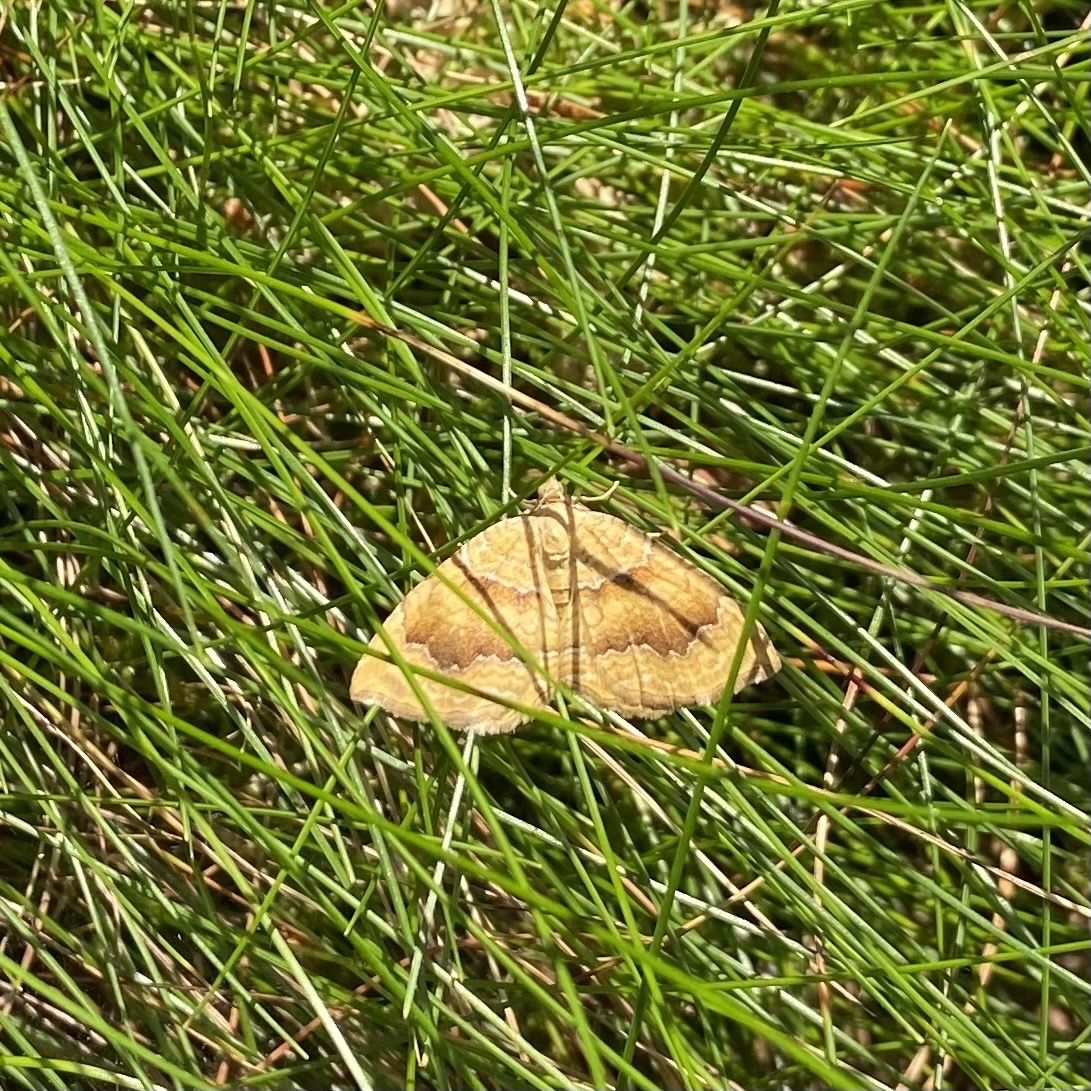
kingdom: Animalia
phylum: Arthropoda
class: Insecta
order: Lepidoptera
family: Geometridae
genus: Camptogramma
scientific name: Camptogramma bilineata
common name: Yellow shell
